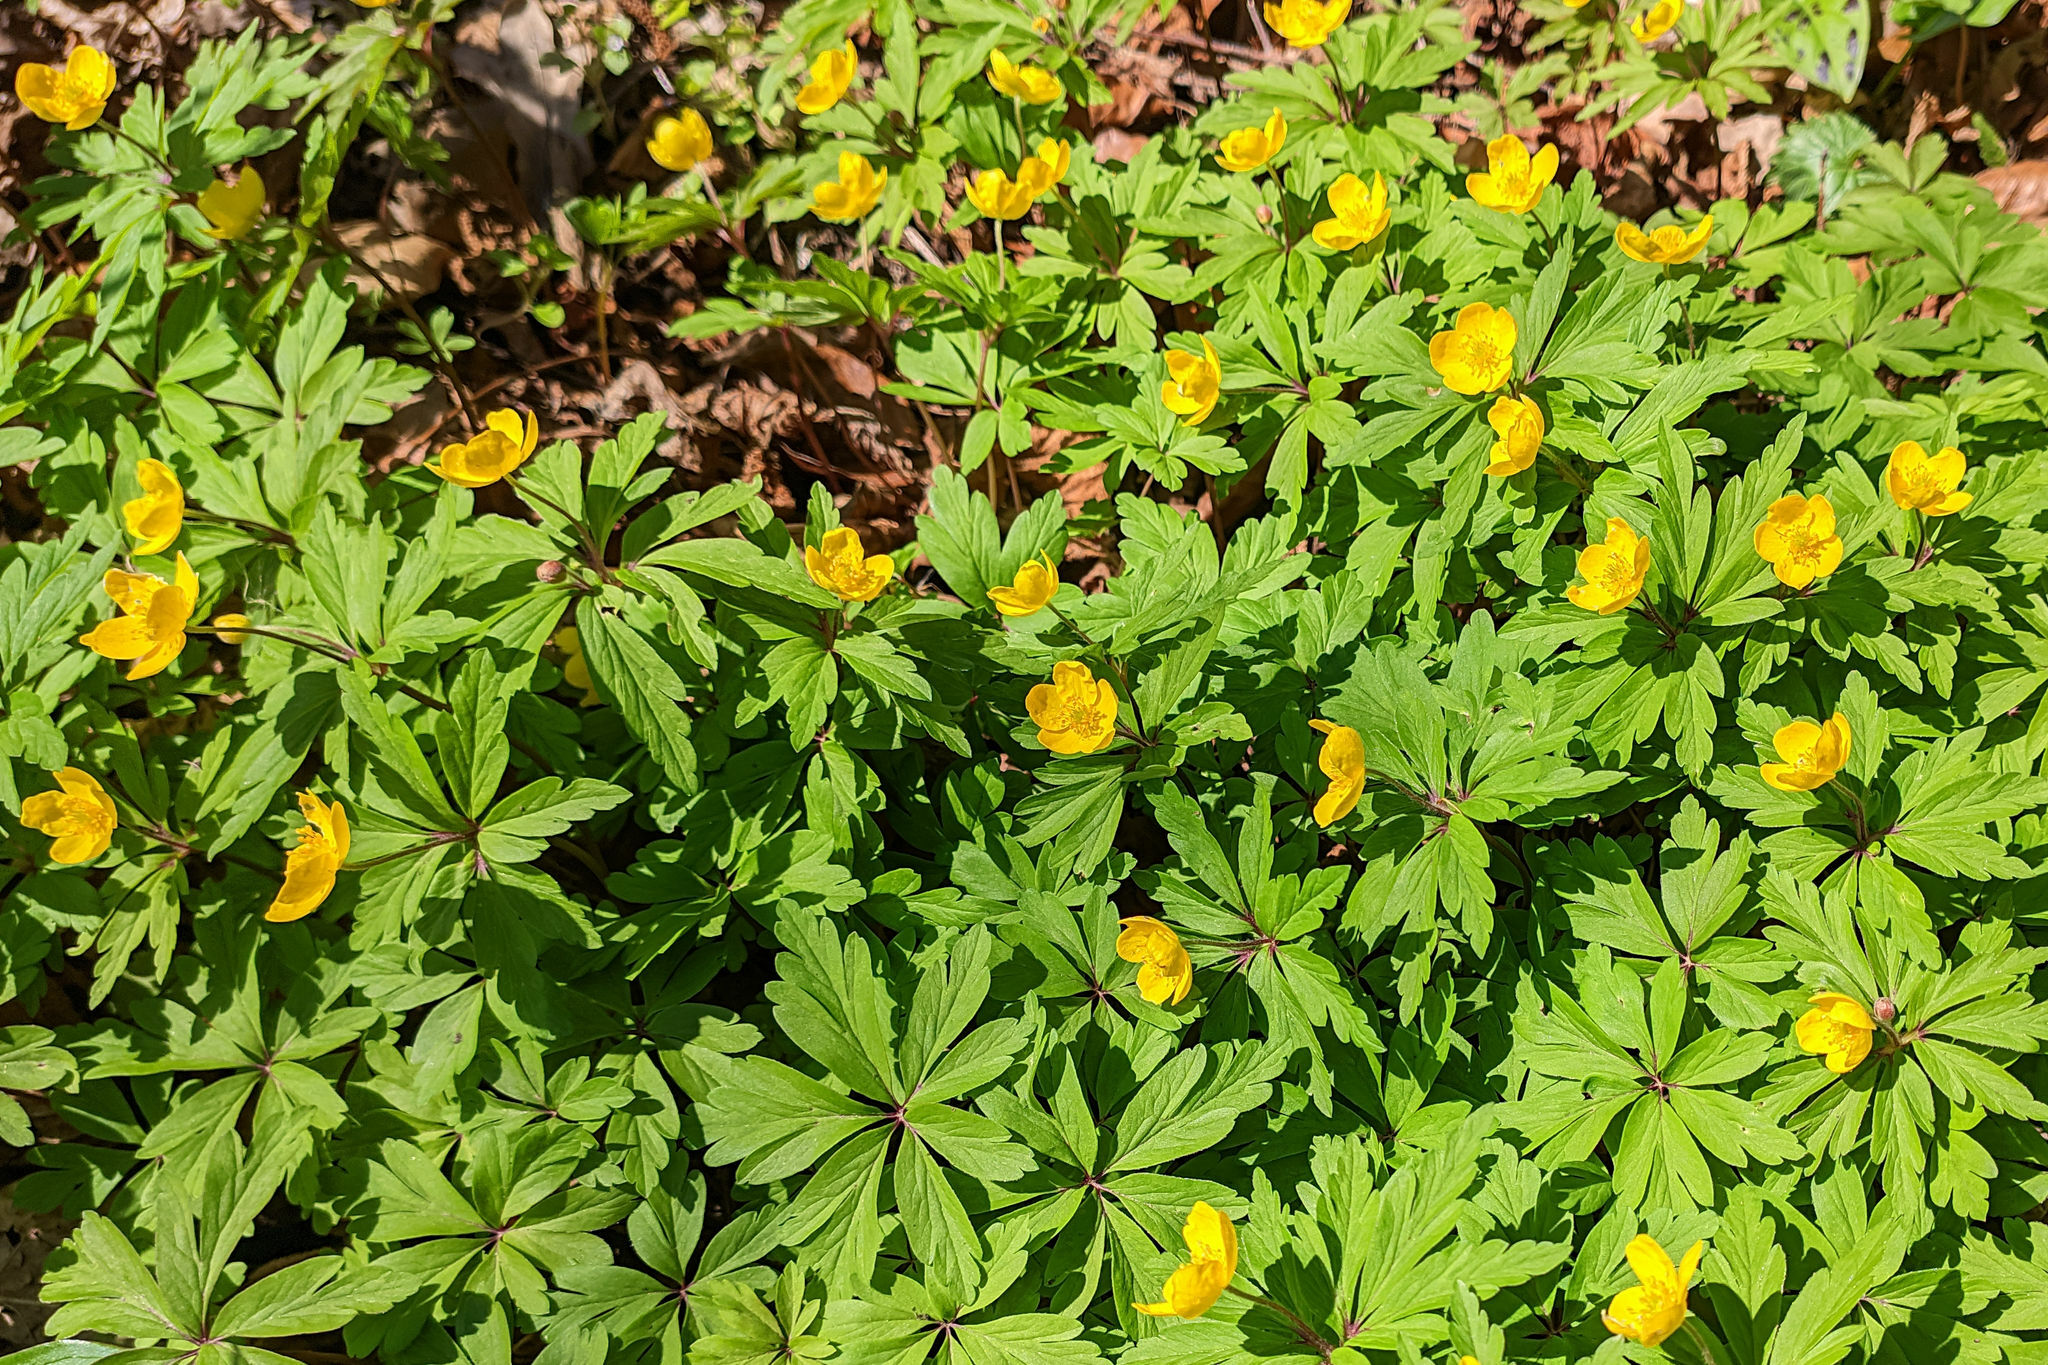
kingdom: Plantae
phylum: Tracheophyta
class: Magnoliopsida
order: Ranunculales
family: Ranunculaceae
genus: Anemone
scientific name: Anemone ranunculoides
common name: Yellow anemone
